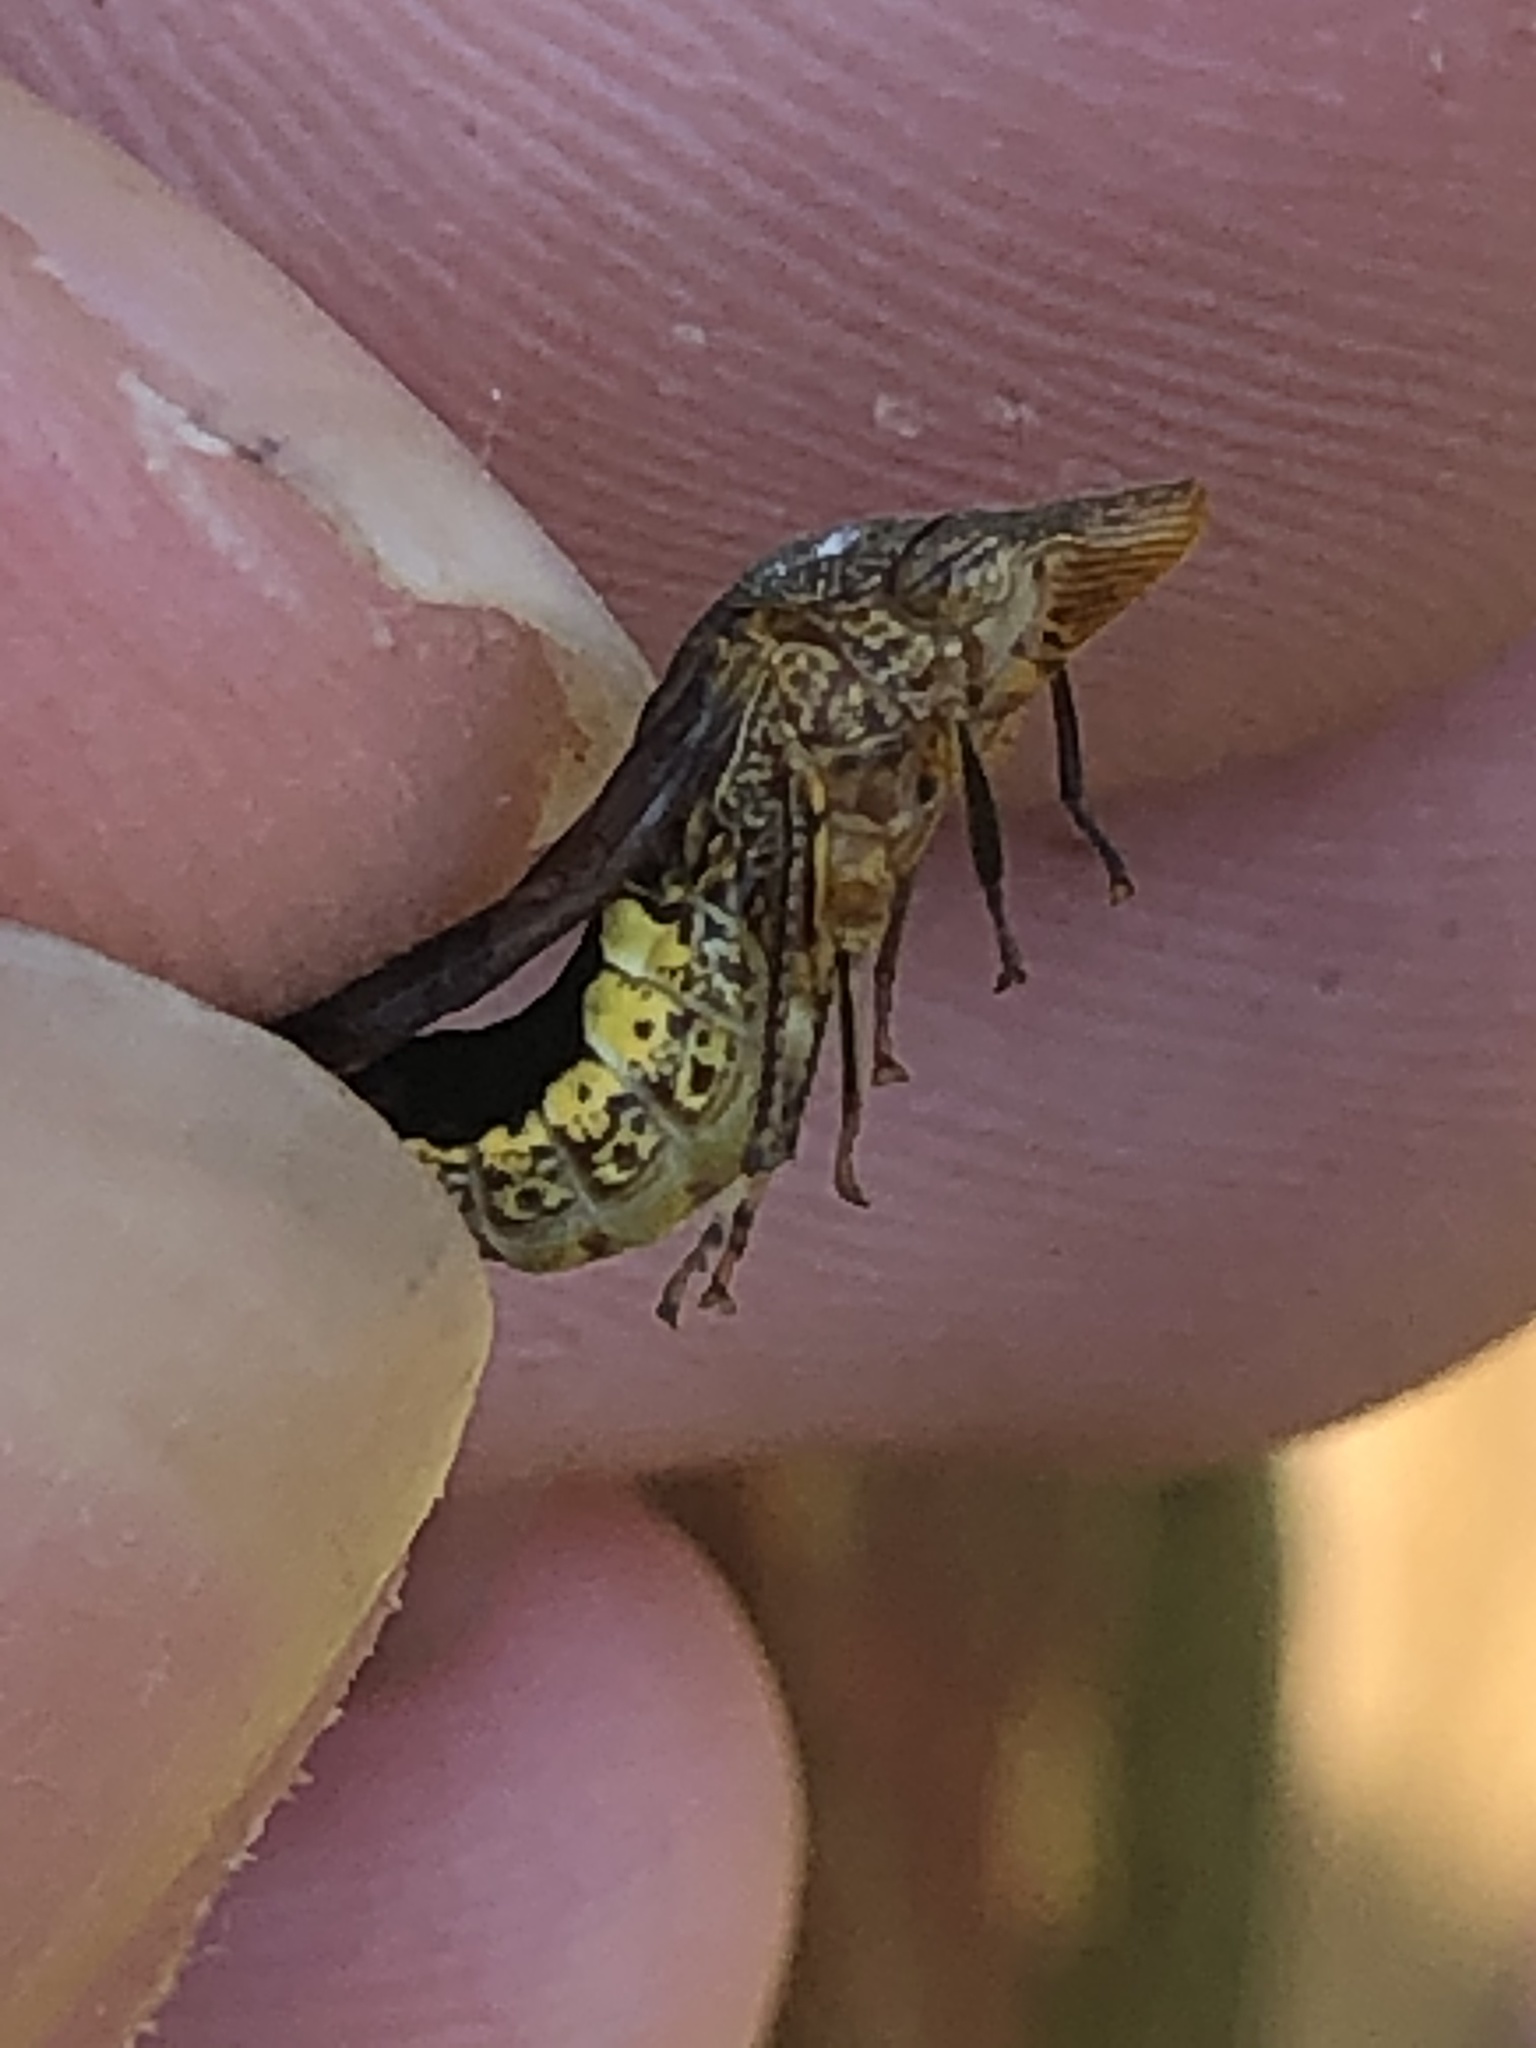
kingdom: Animalia
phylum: Arthropoda
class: Insecta
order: Hemiptera
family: Cicadellidae
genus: Homalodisca
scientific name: Homalodisca vitripennis
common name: Glassy-winged sharpshooter
